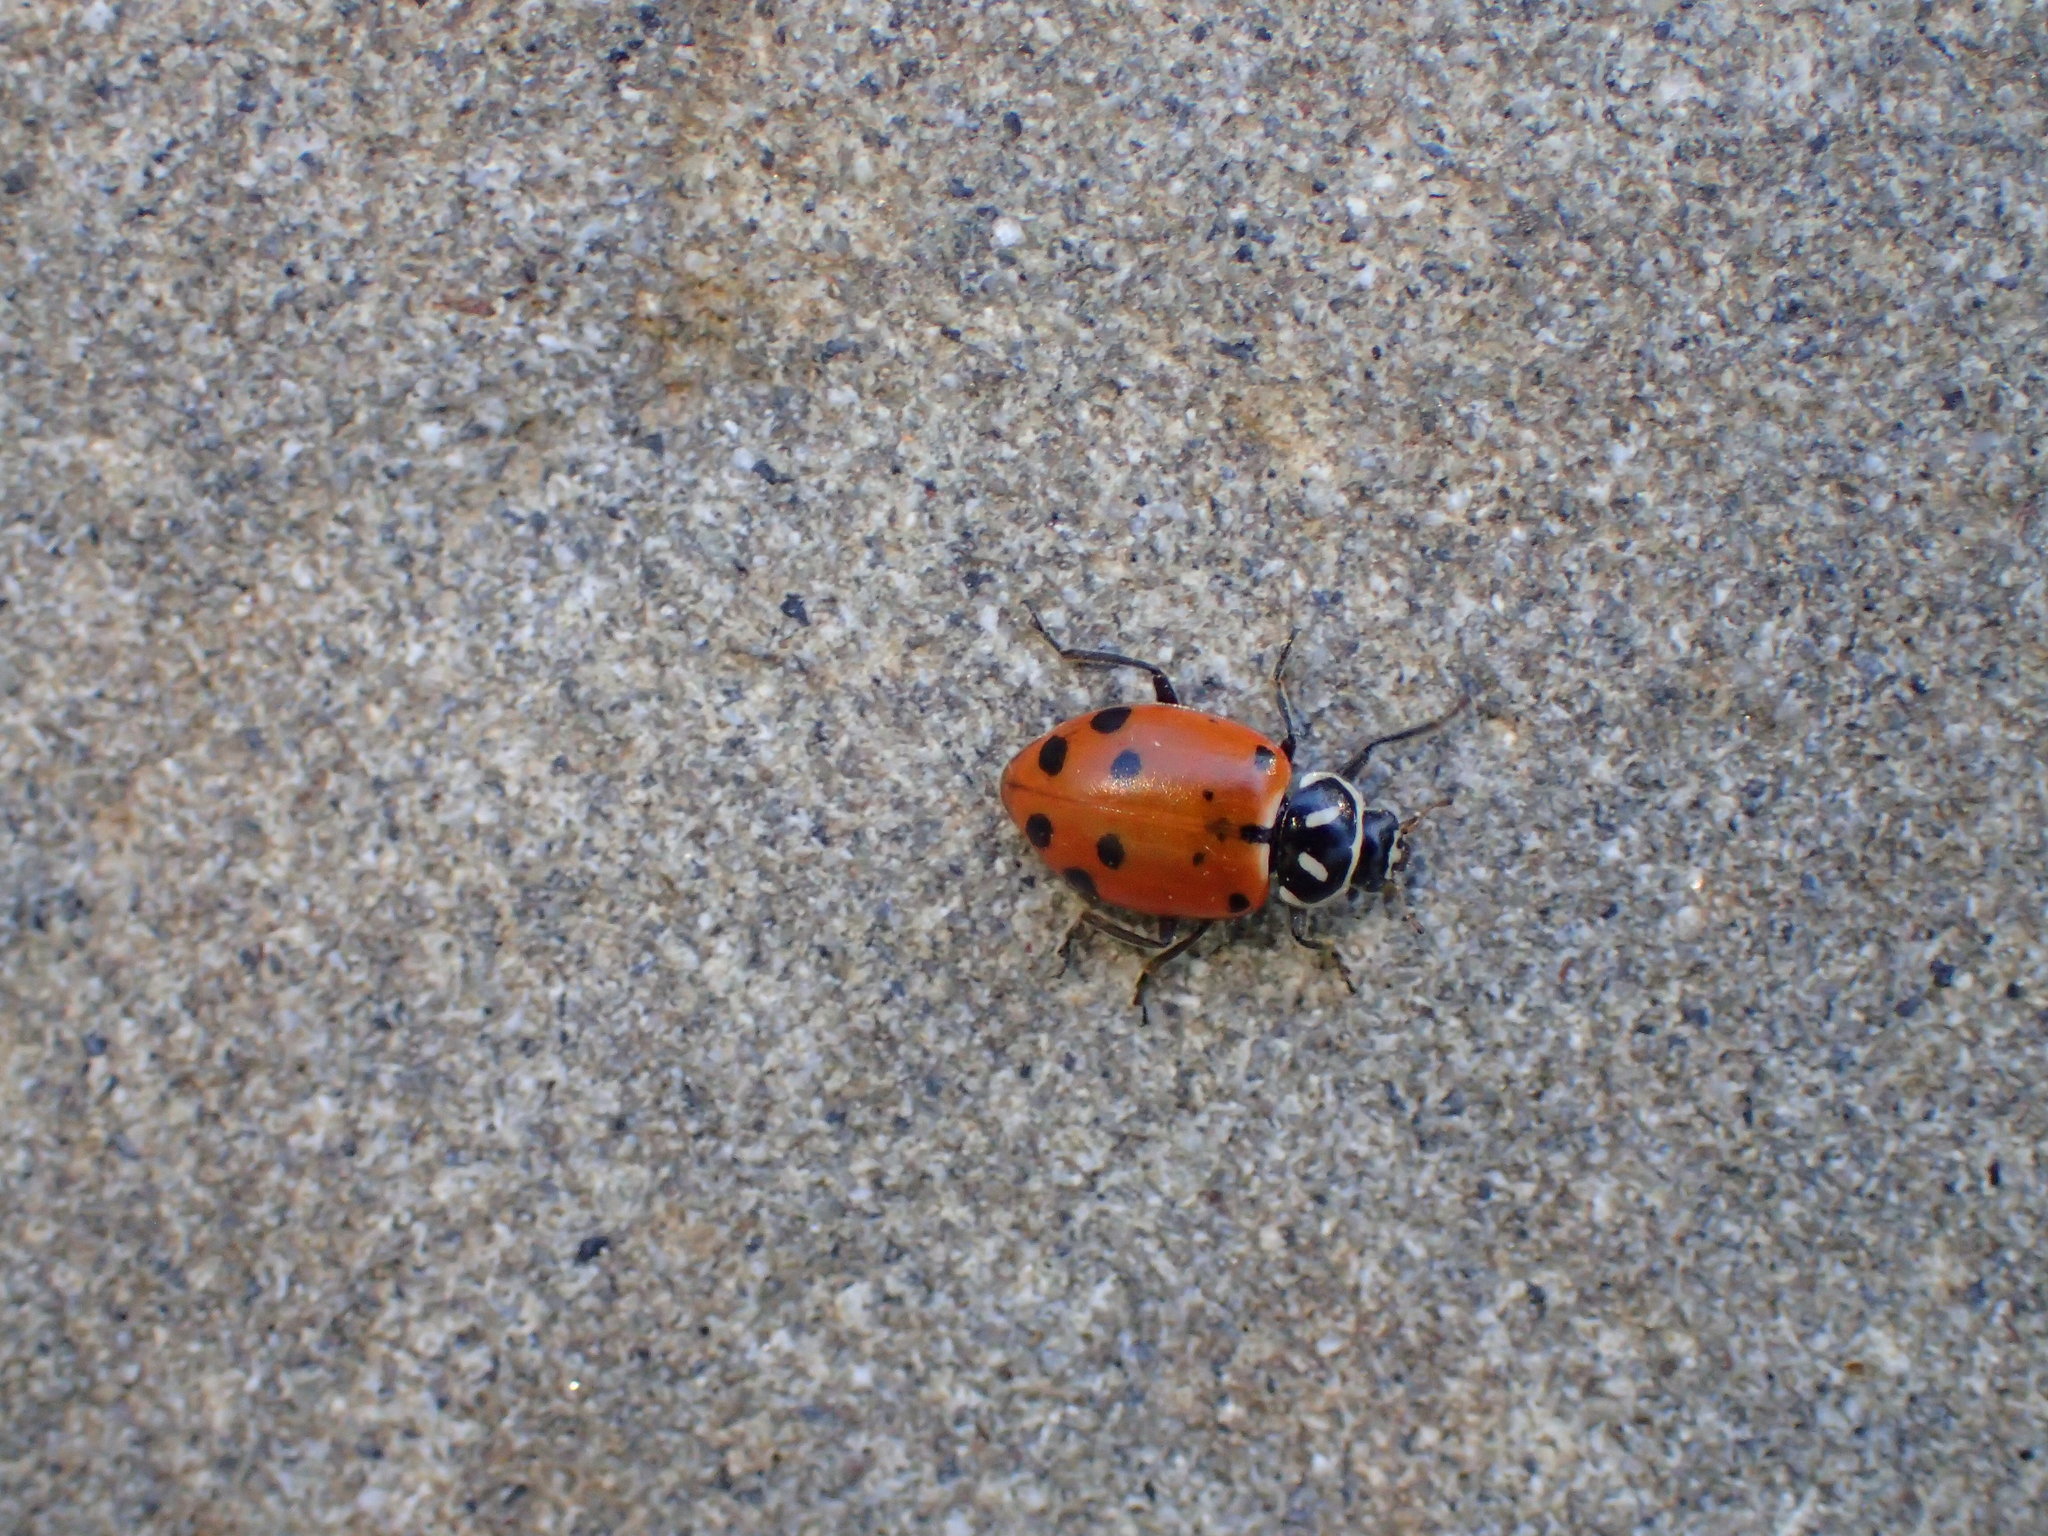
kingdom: Animalia
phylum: Arthropoda
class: Insecta
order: Coleoptera
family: Coccinellidae
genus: Hippodamia
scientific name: Hippodamia convergens
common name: Convergent lady beetle
